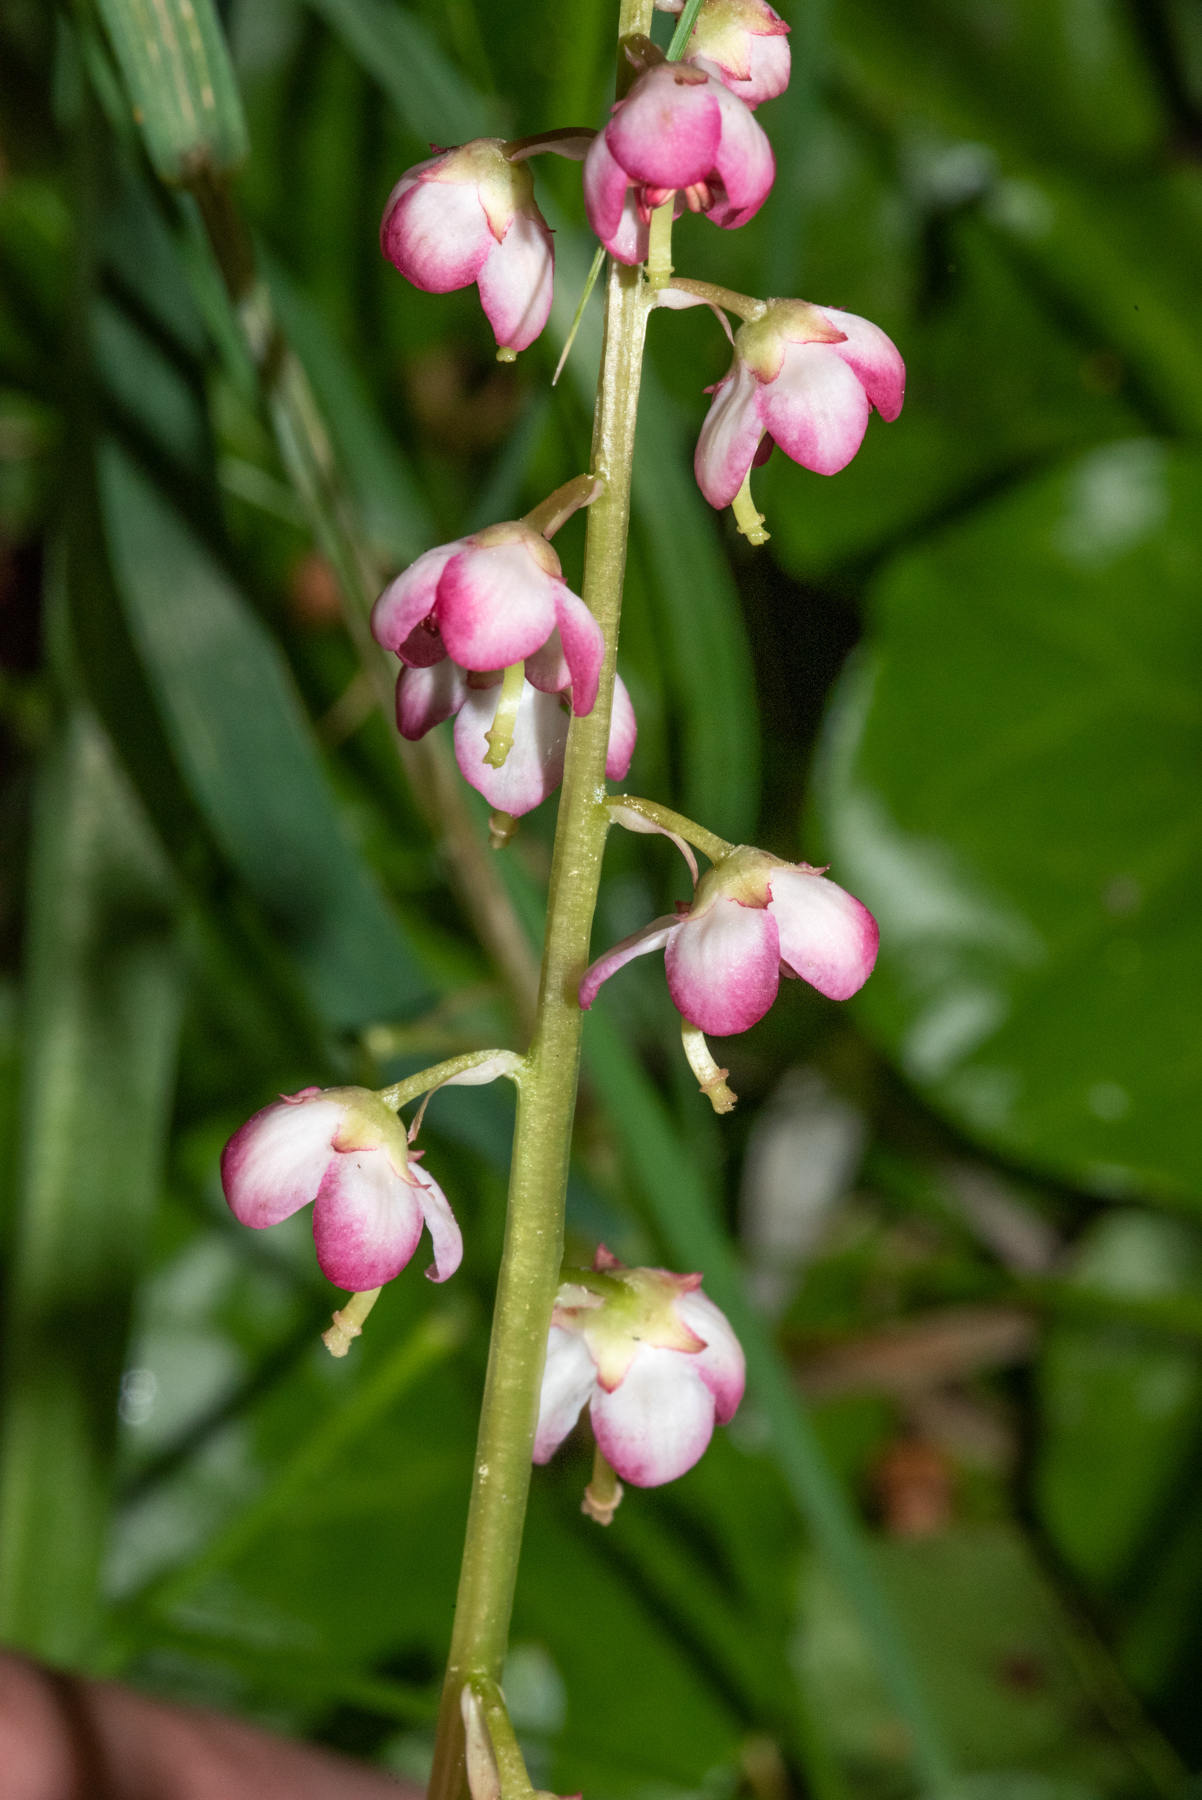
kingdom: Plantae
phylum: Tracheophyta
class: Magnoliopsida
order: Ericales
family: Ericaceae
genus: Pyrola
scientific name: Pyrola asarifolia
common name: Bog wintergreen
